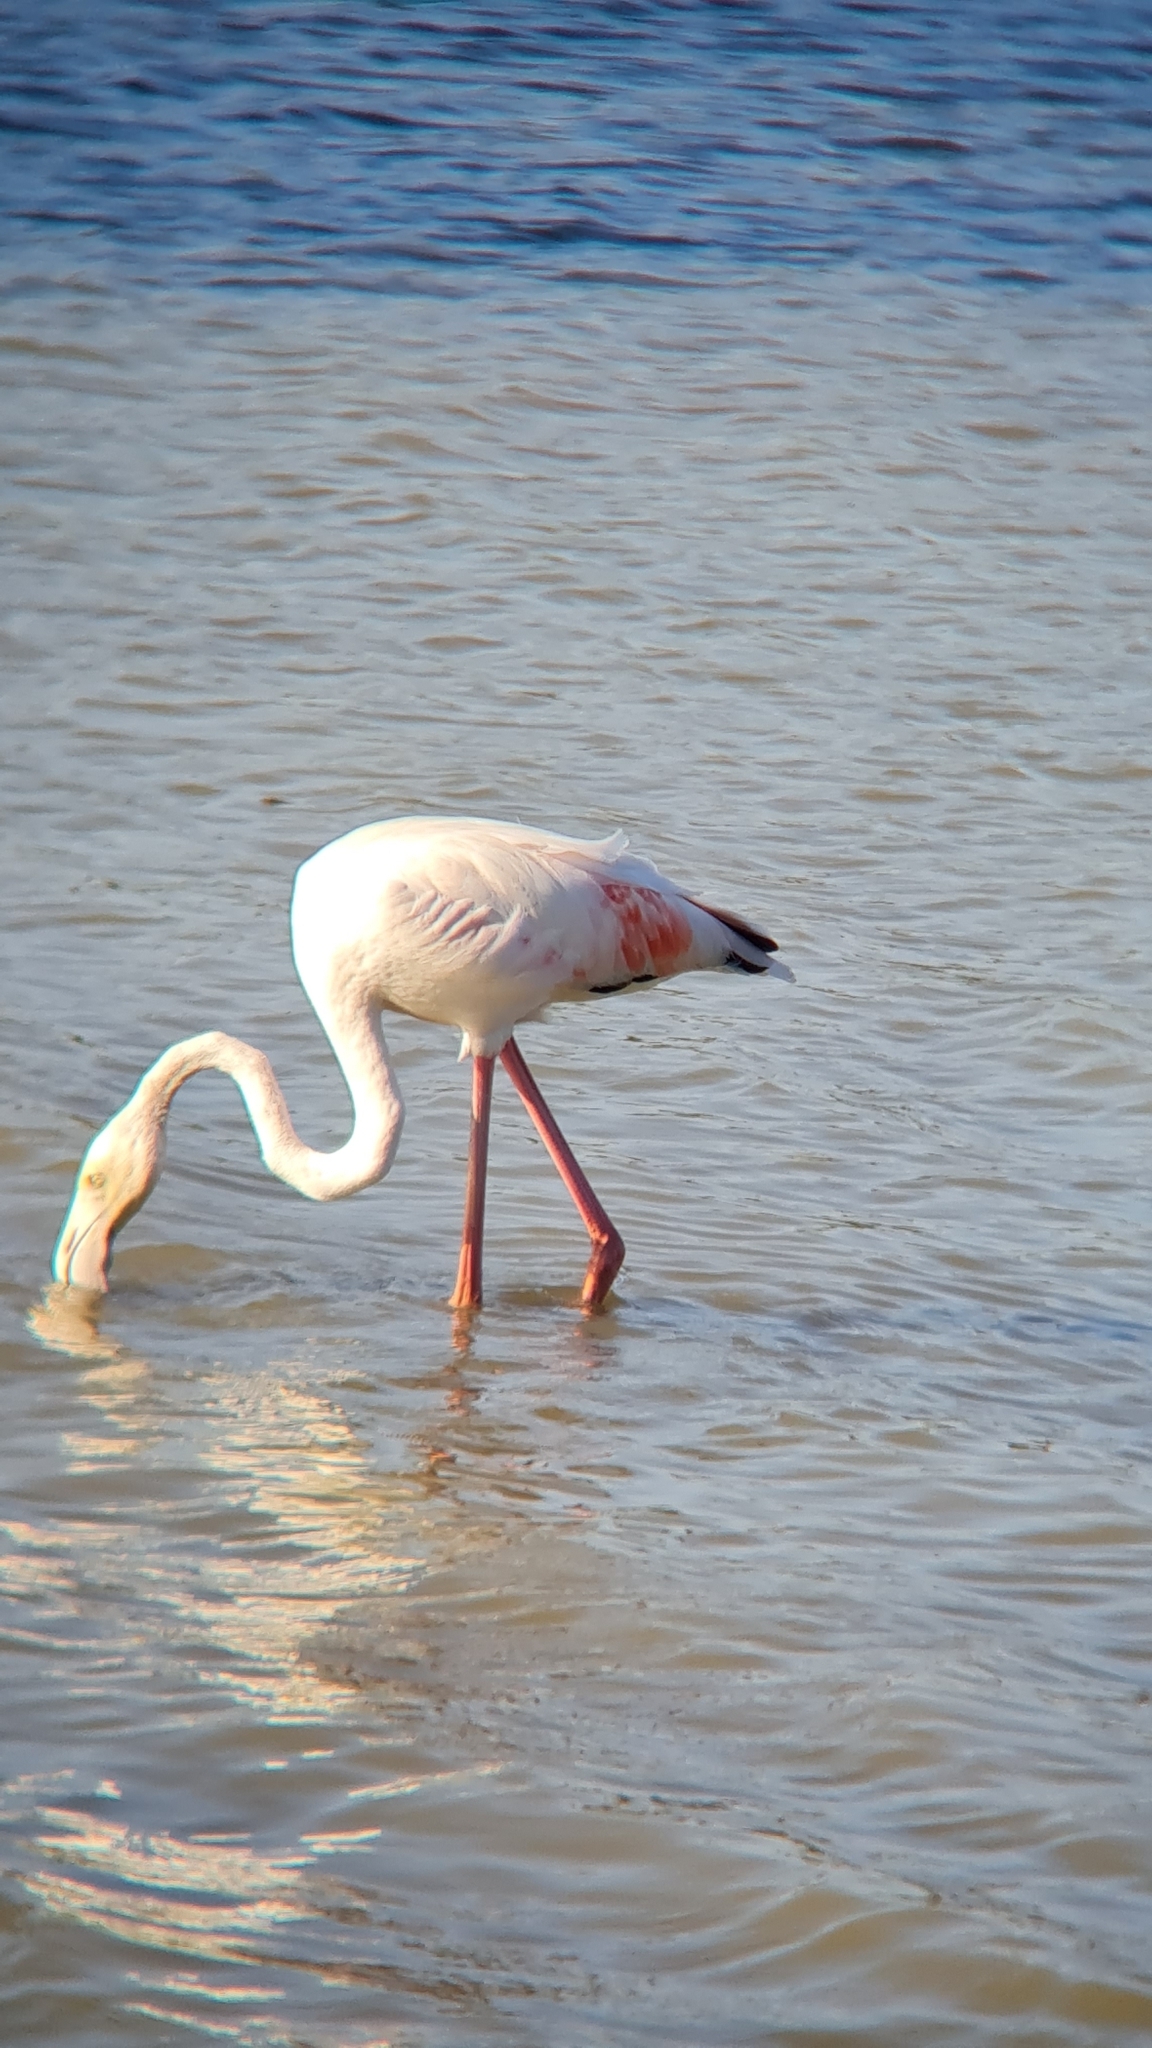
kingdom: Animalia
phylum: Chordata
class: Aves
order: Phoenicopteriformes
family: Phoenicopteridae
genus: Phoenicopterus
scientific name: Phoenicopterus roseus
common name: Greater flamingo
